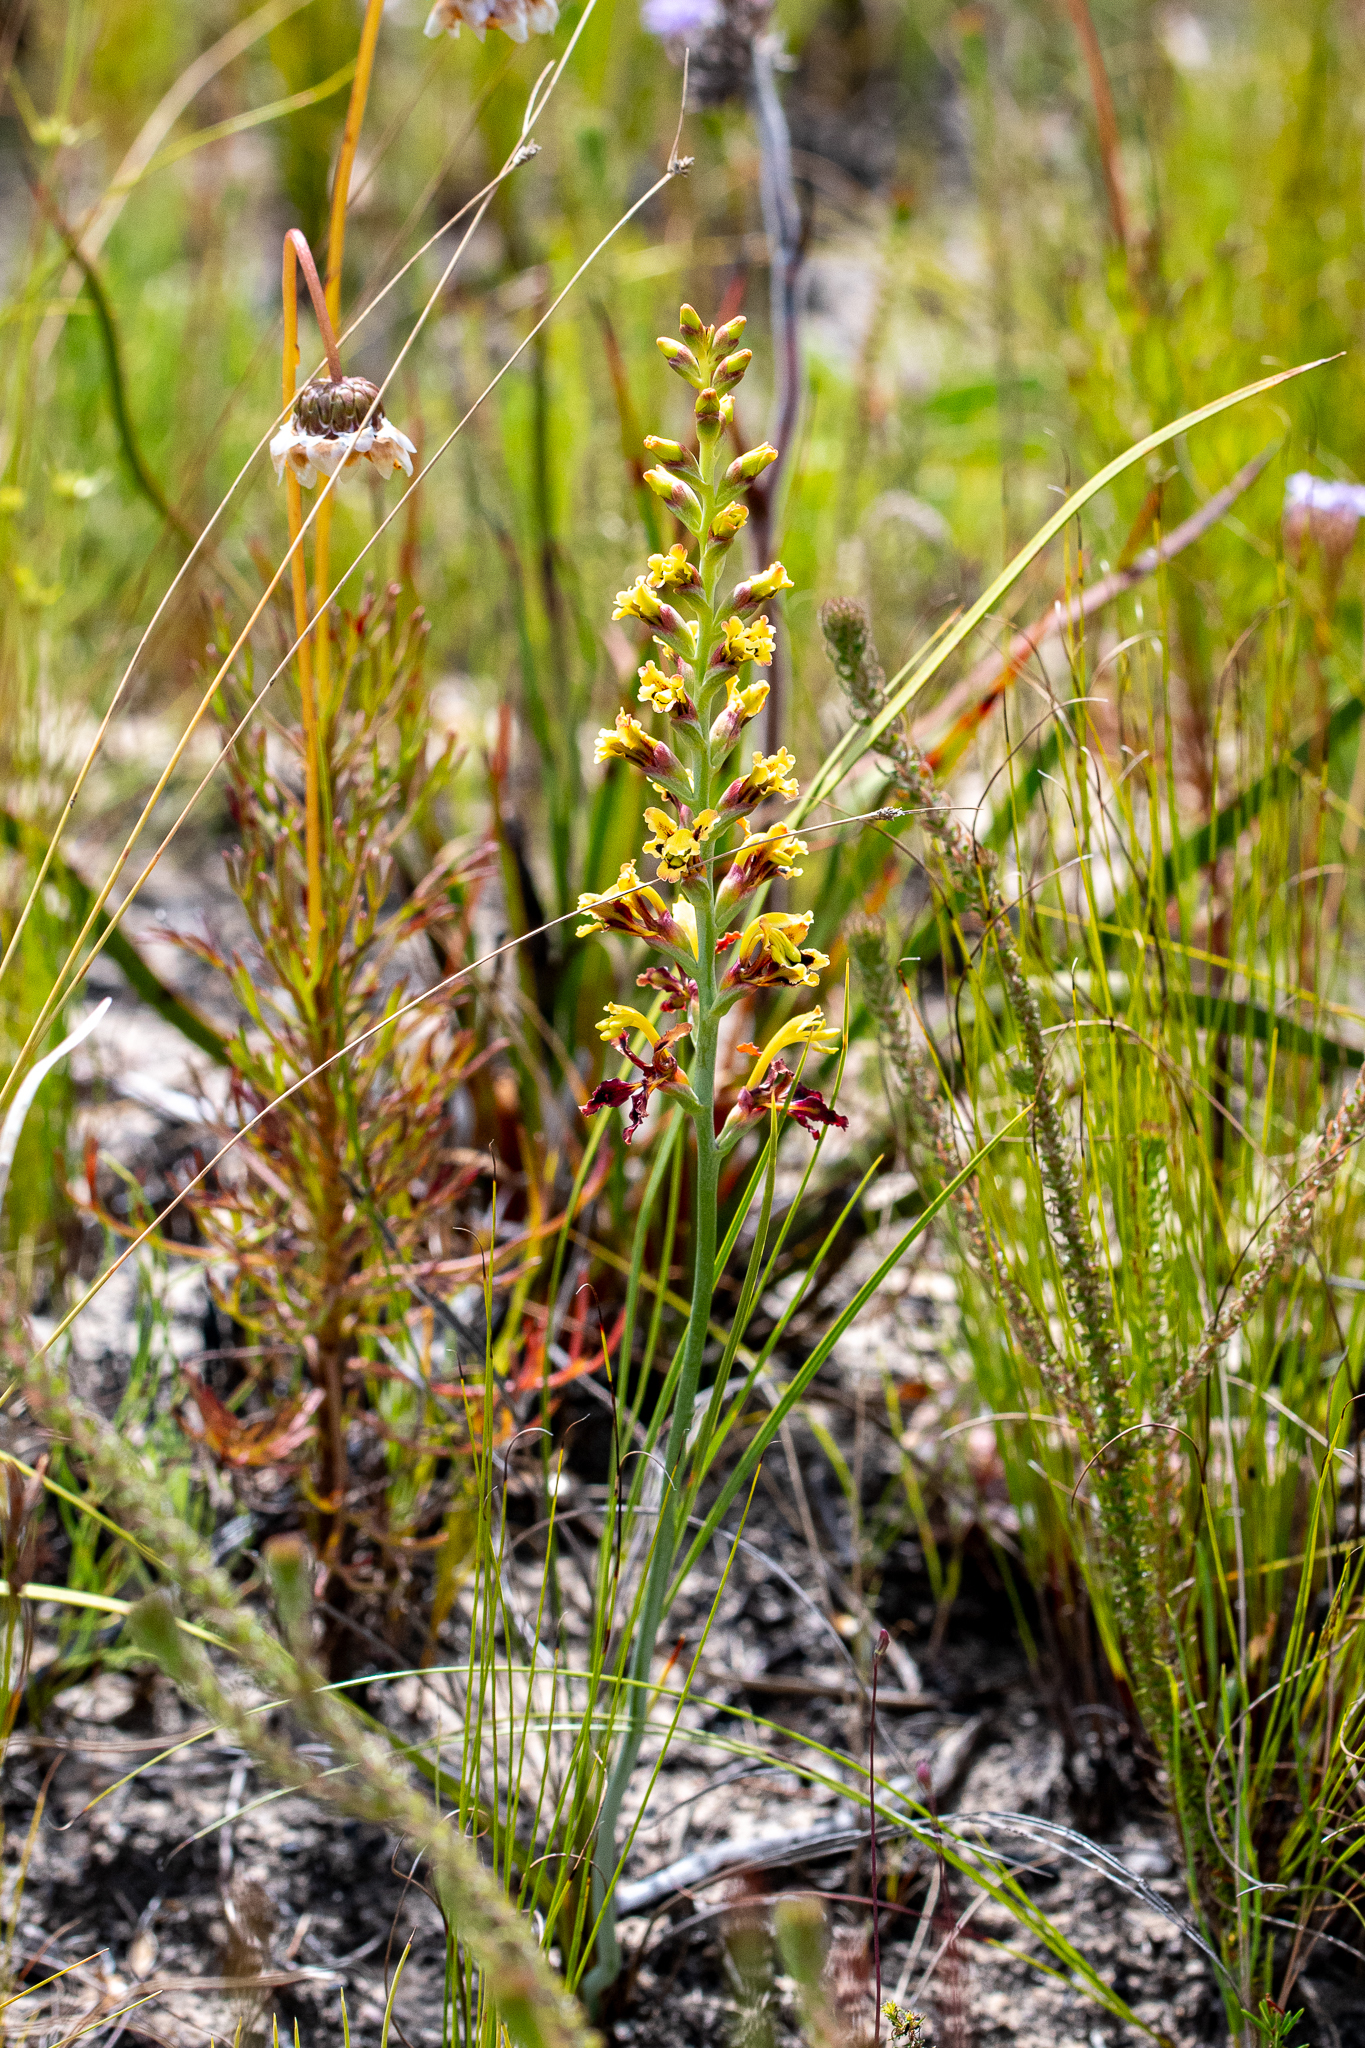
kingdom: Plantae
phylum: Tracheophyta
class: Liliopsida
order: Asparagales
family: Iridaceae
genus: Tritoniopsis
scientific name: Tritoniopsis parviflora
